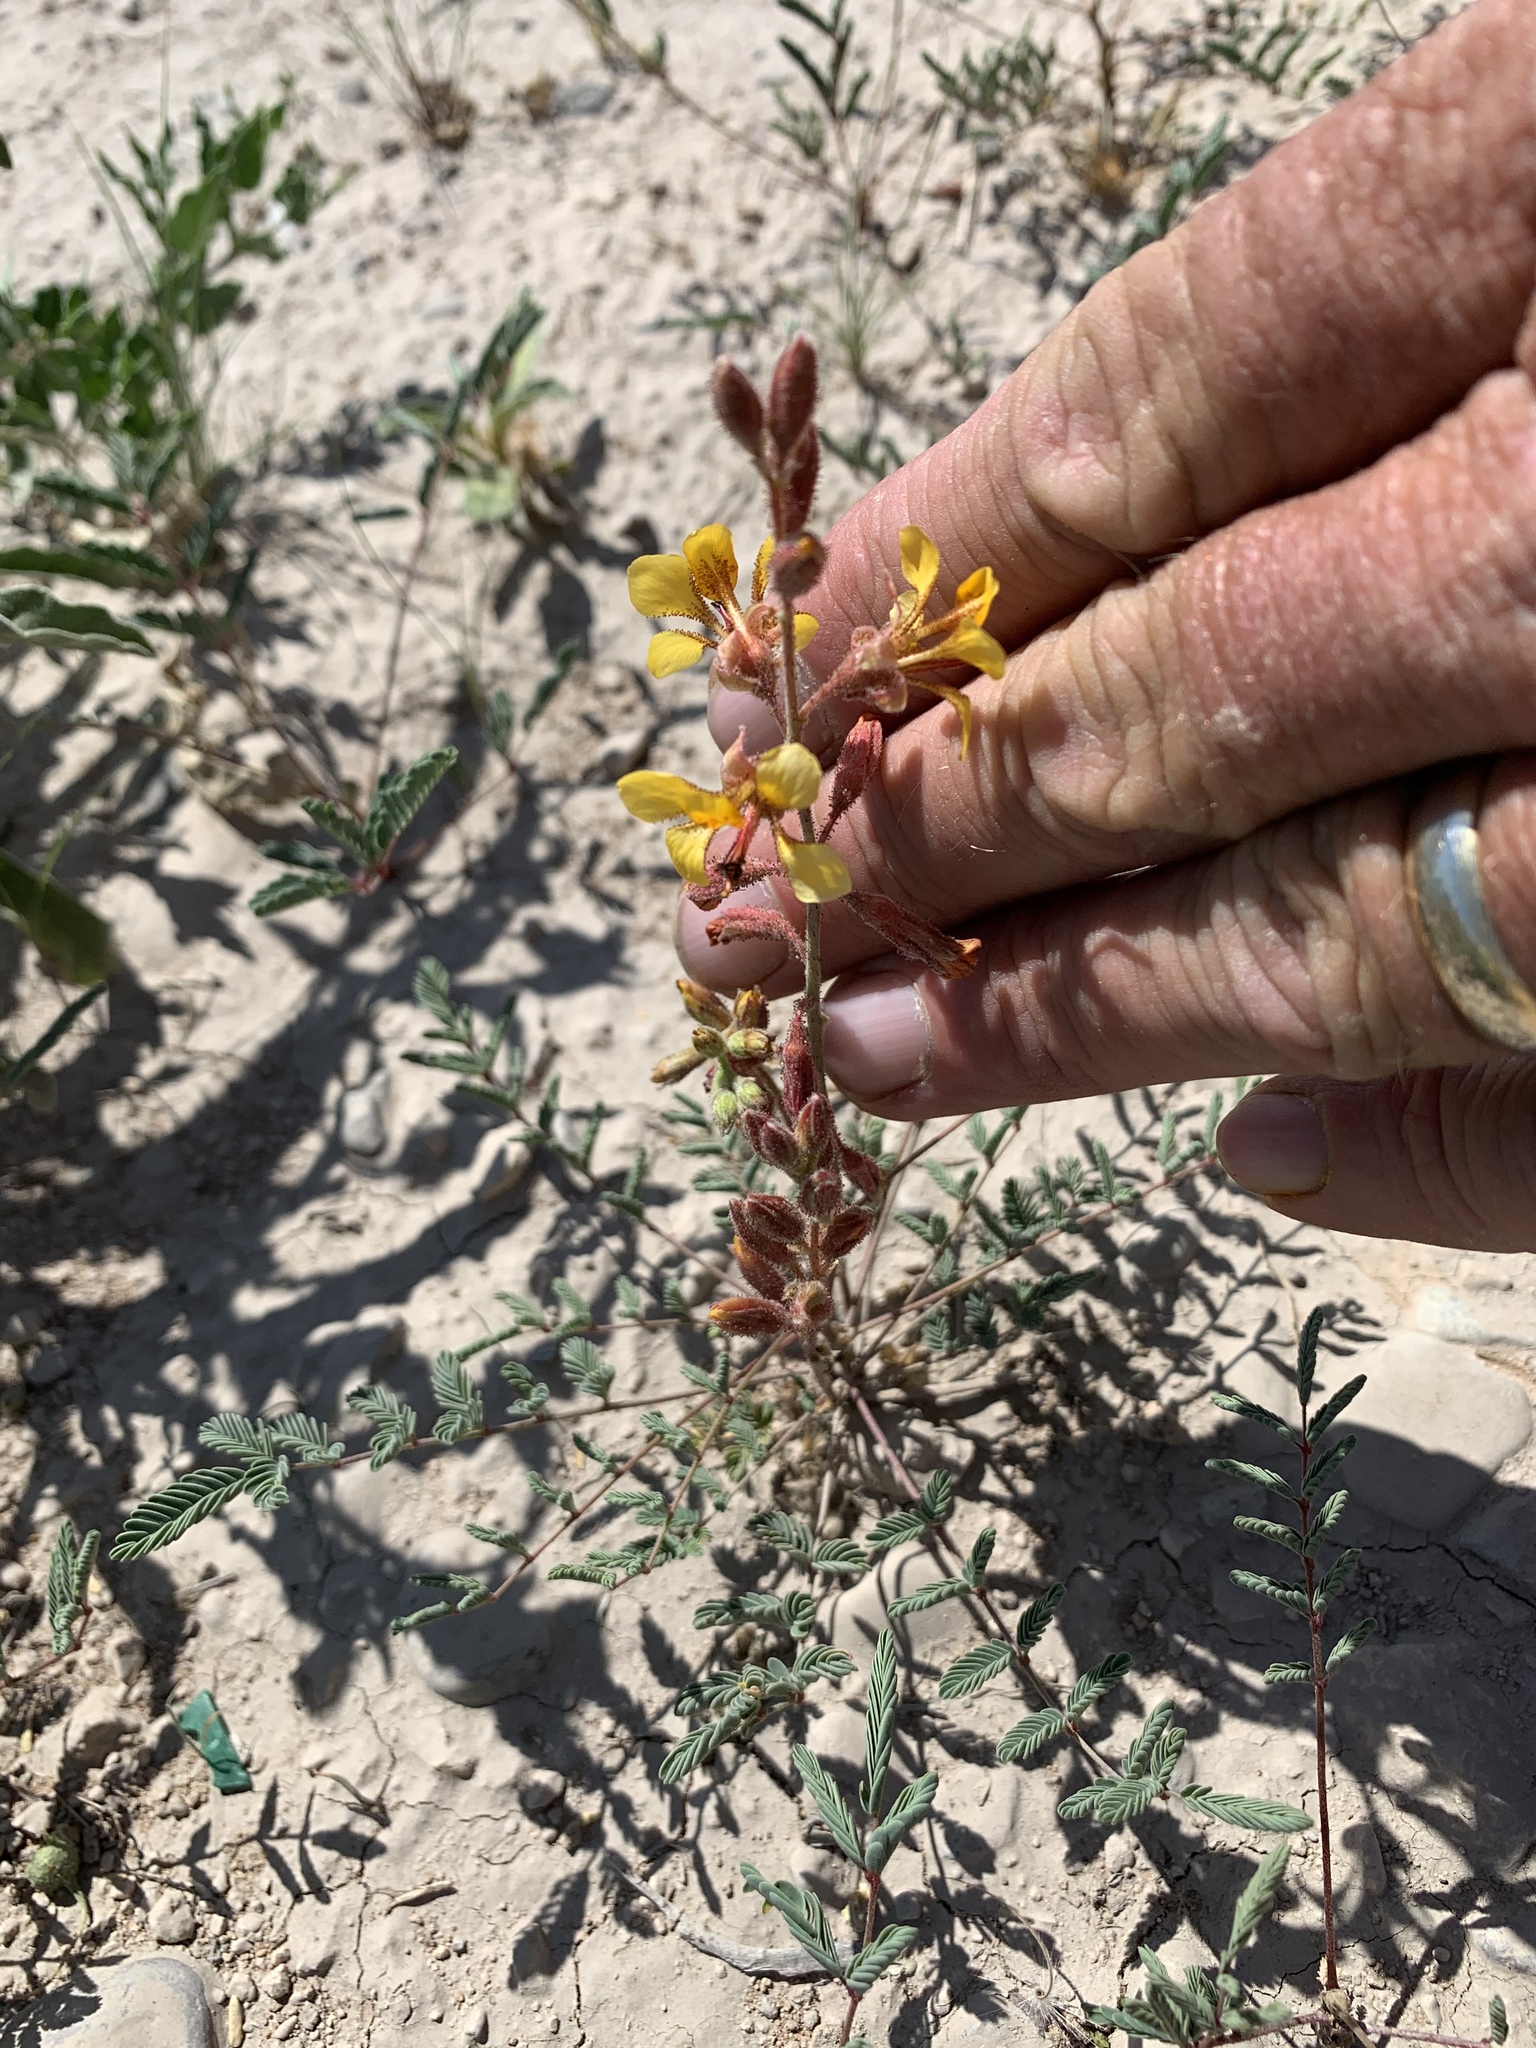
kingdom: Plantae
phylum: Tracheophyta
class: Magnoliopsida
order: Fabales
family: Fabaceae
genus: Hoffmannseggia
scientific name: Hoffmannseggia glauca
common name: Pignut
